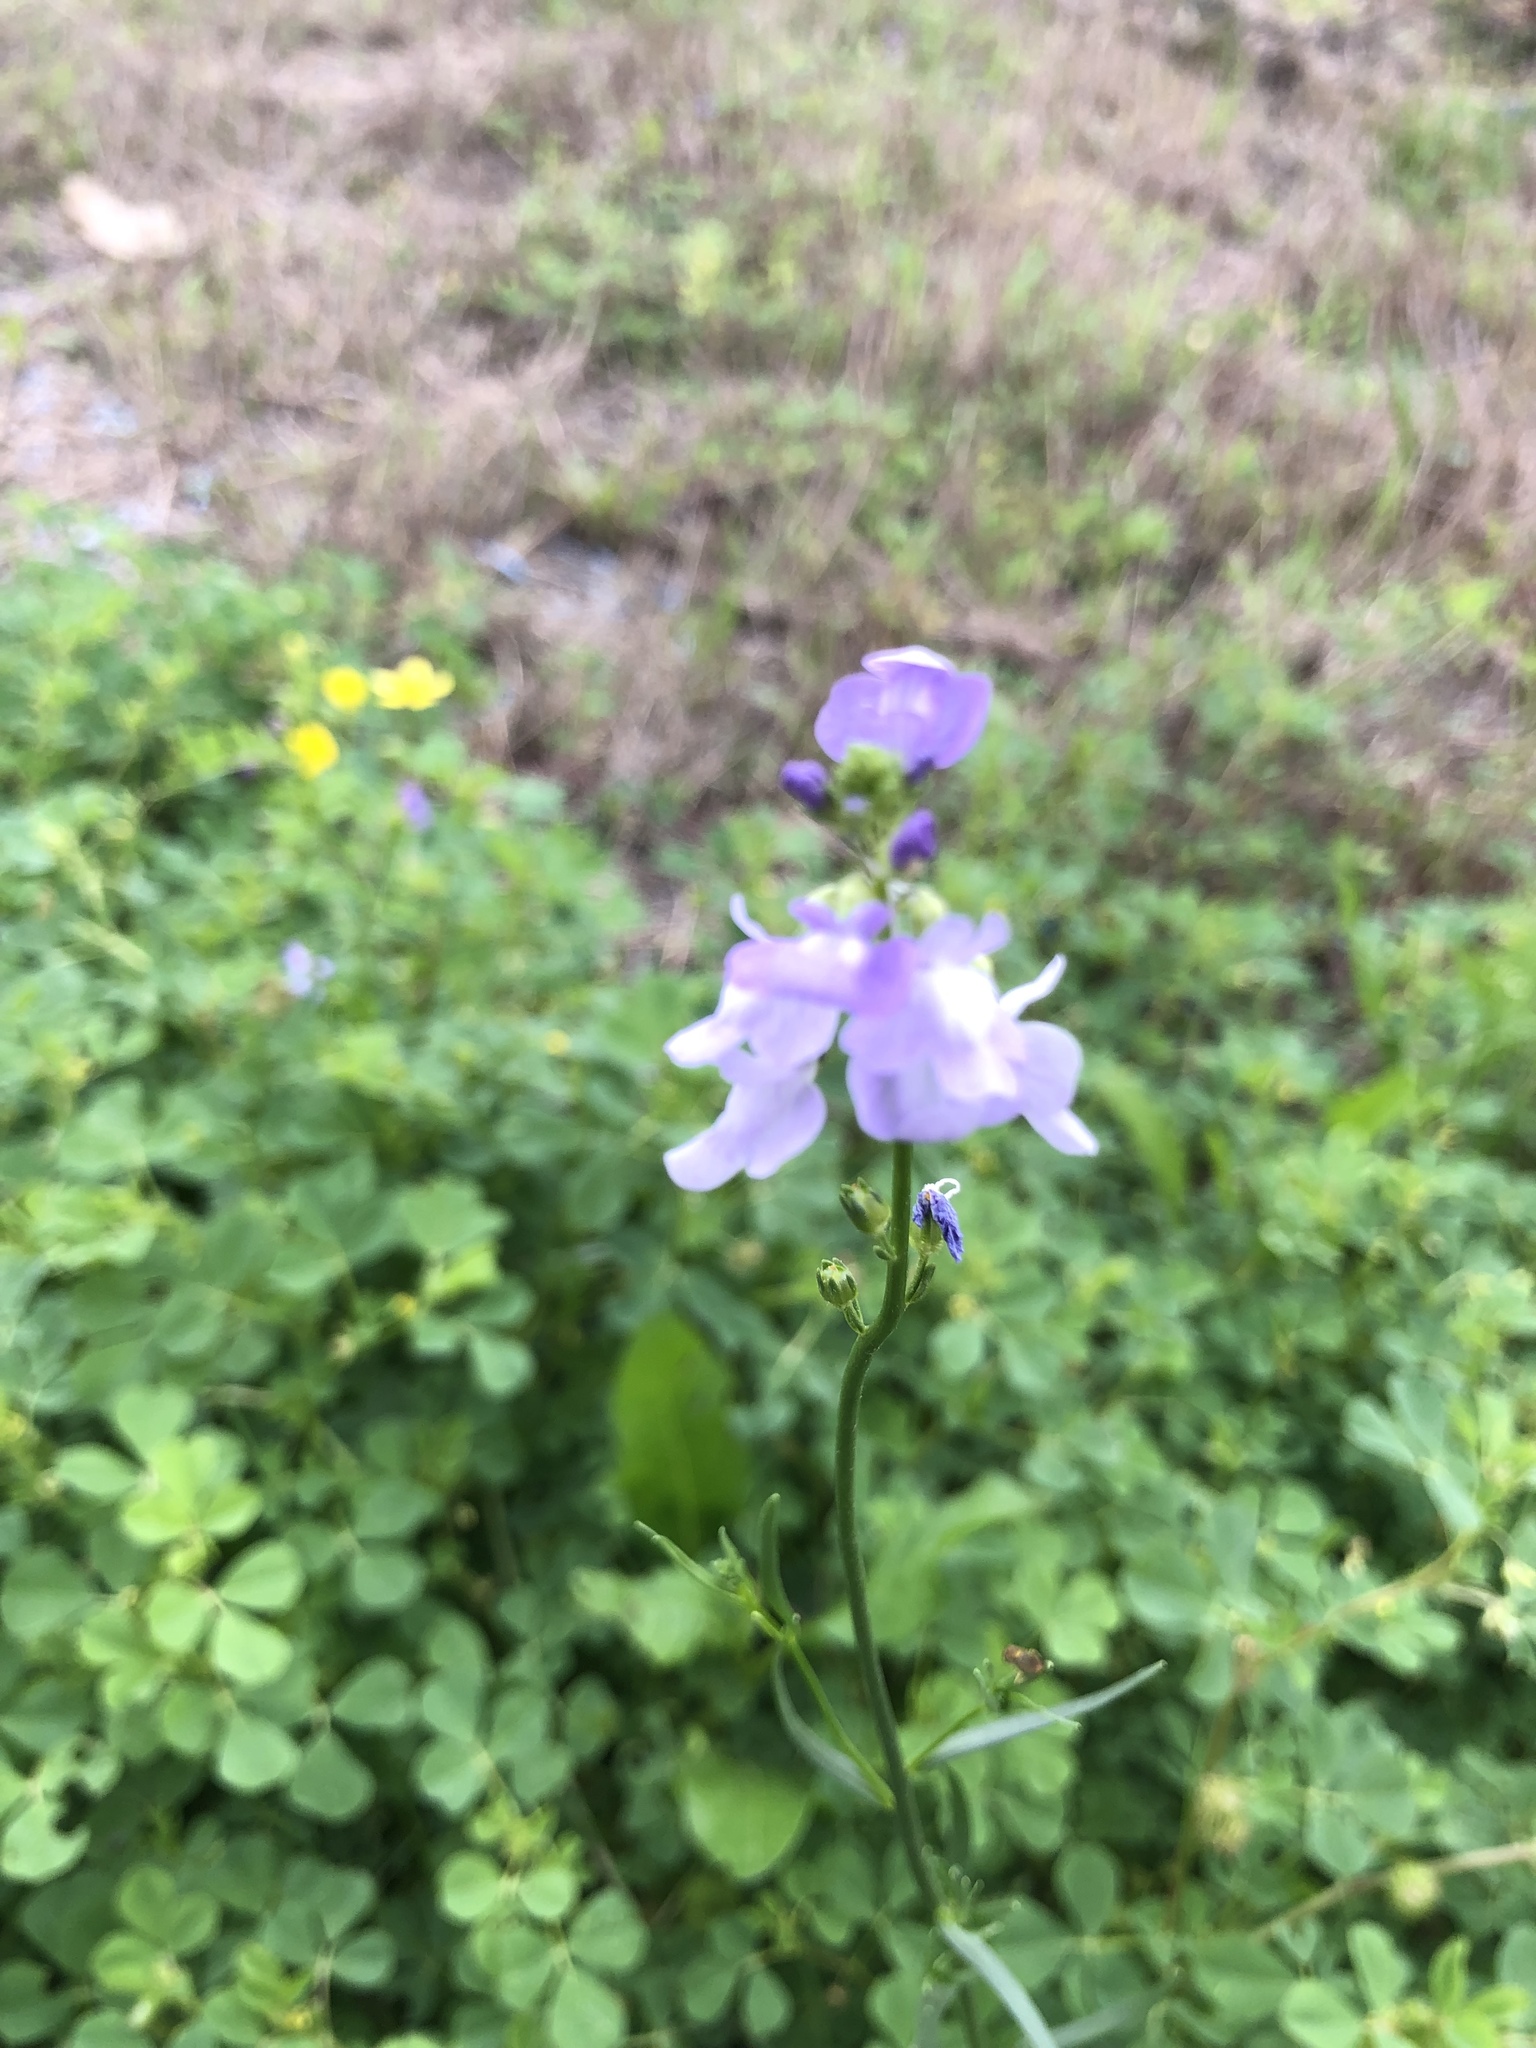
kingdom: Plantae
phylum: Tracheophyta
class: Magnoliopsida
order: Lamiales
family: Plantaginaceae
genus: Nuttallanthus
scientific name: Nuttallanthus texanus
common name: Texas toadflax
